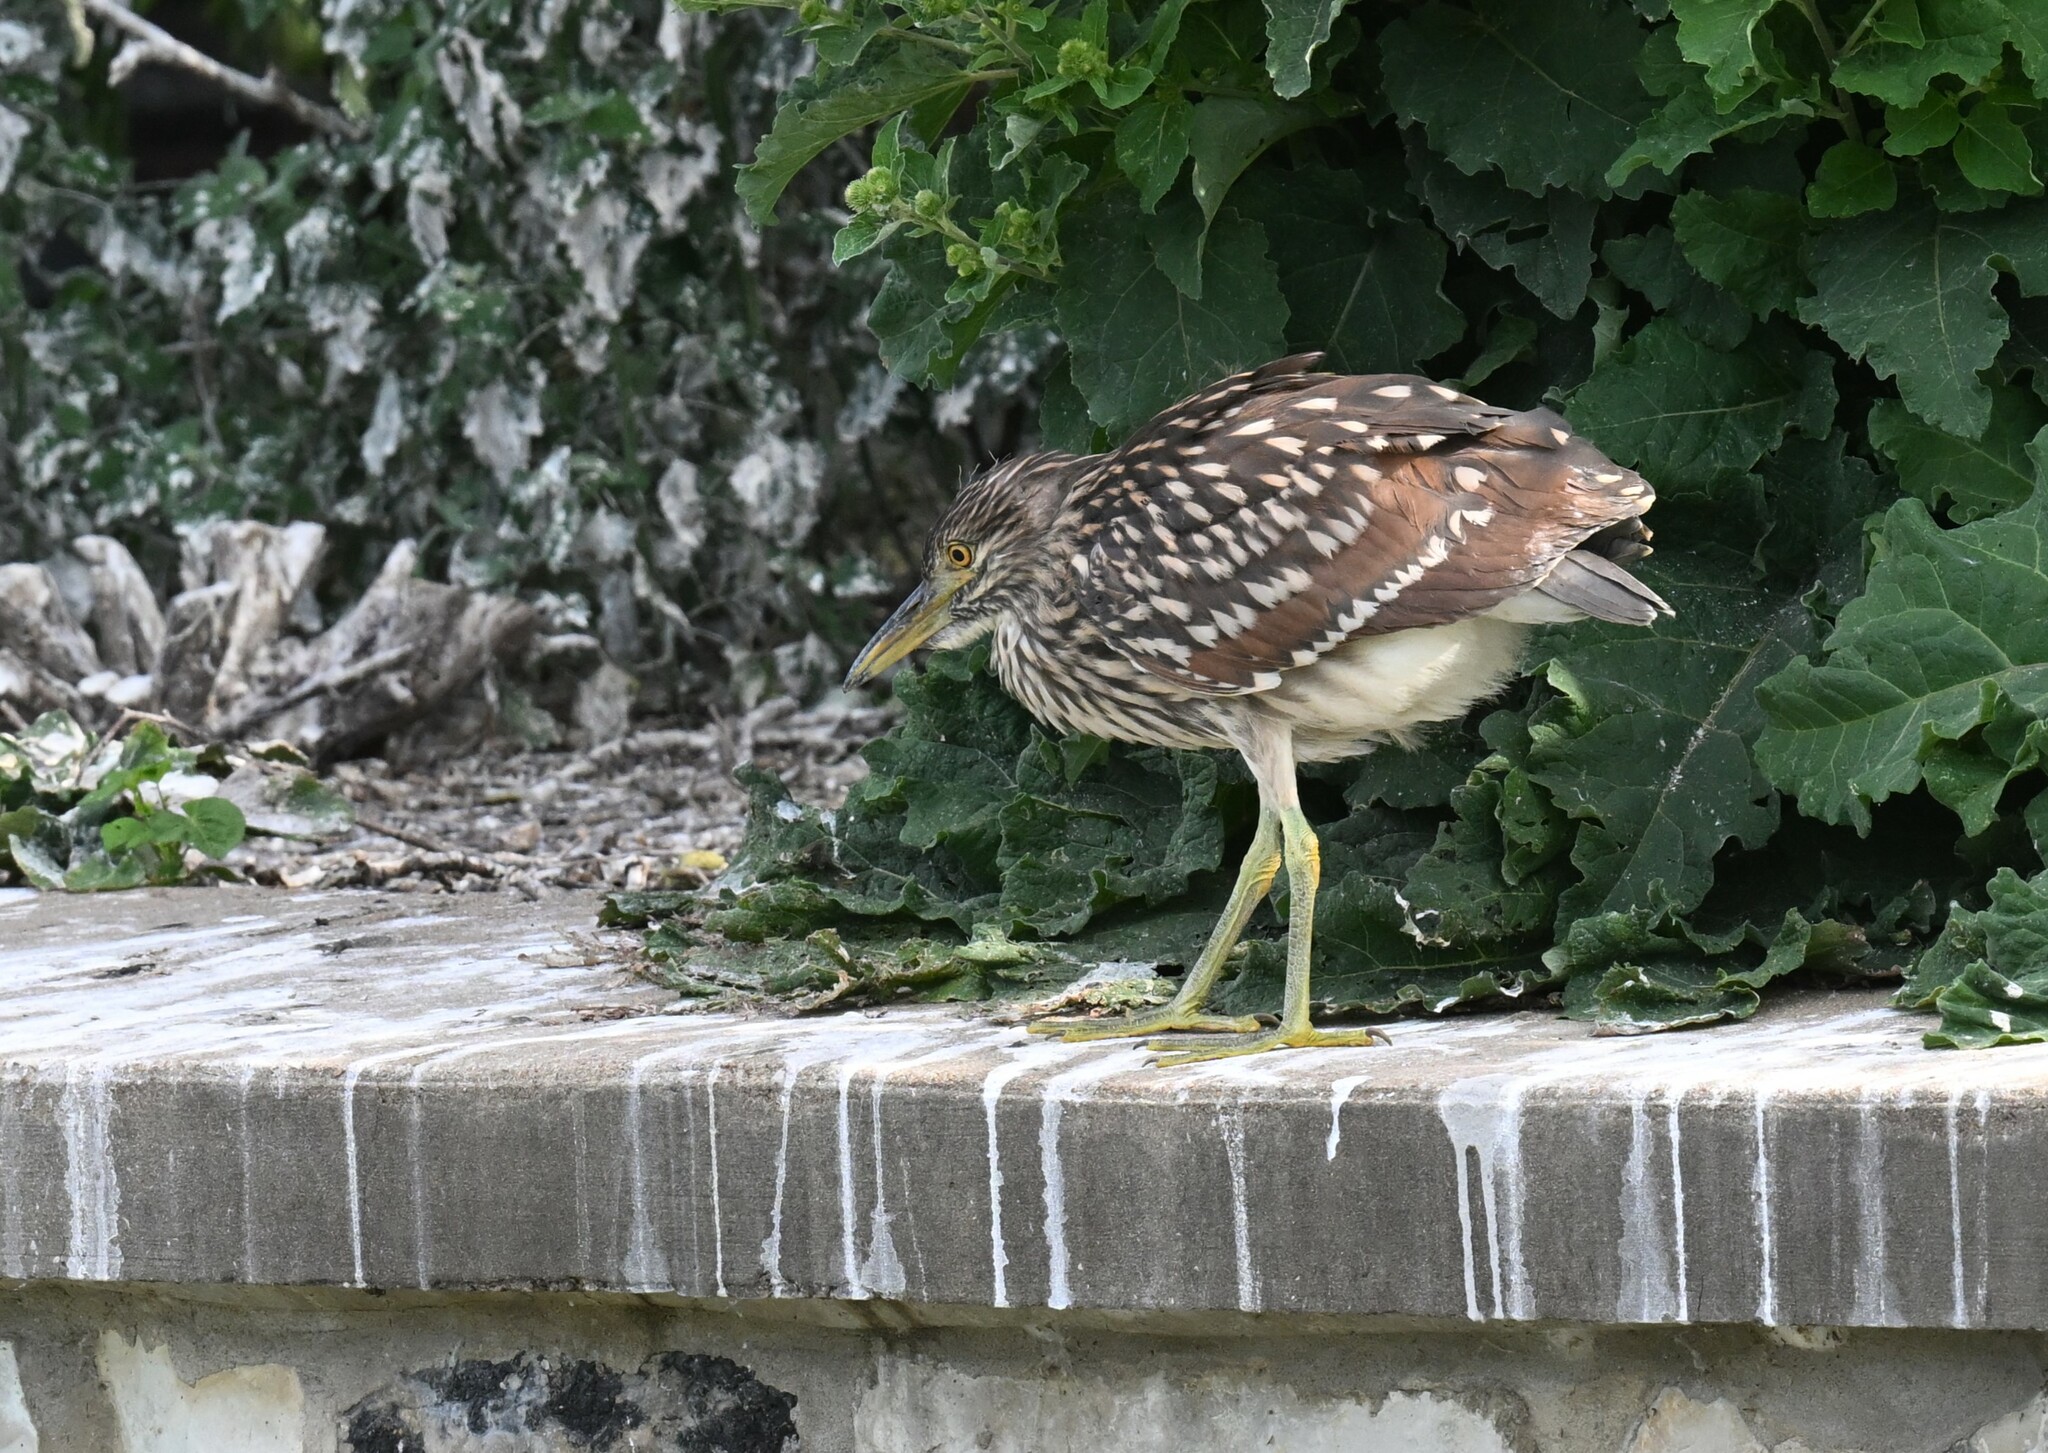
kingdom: Animalia
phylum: Chordata
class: Aves
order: Pelecaniformes
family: Ardeidae
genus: Nycticorax
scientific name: Nycticorax nycticorax
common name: Black-crowned night heron
